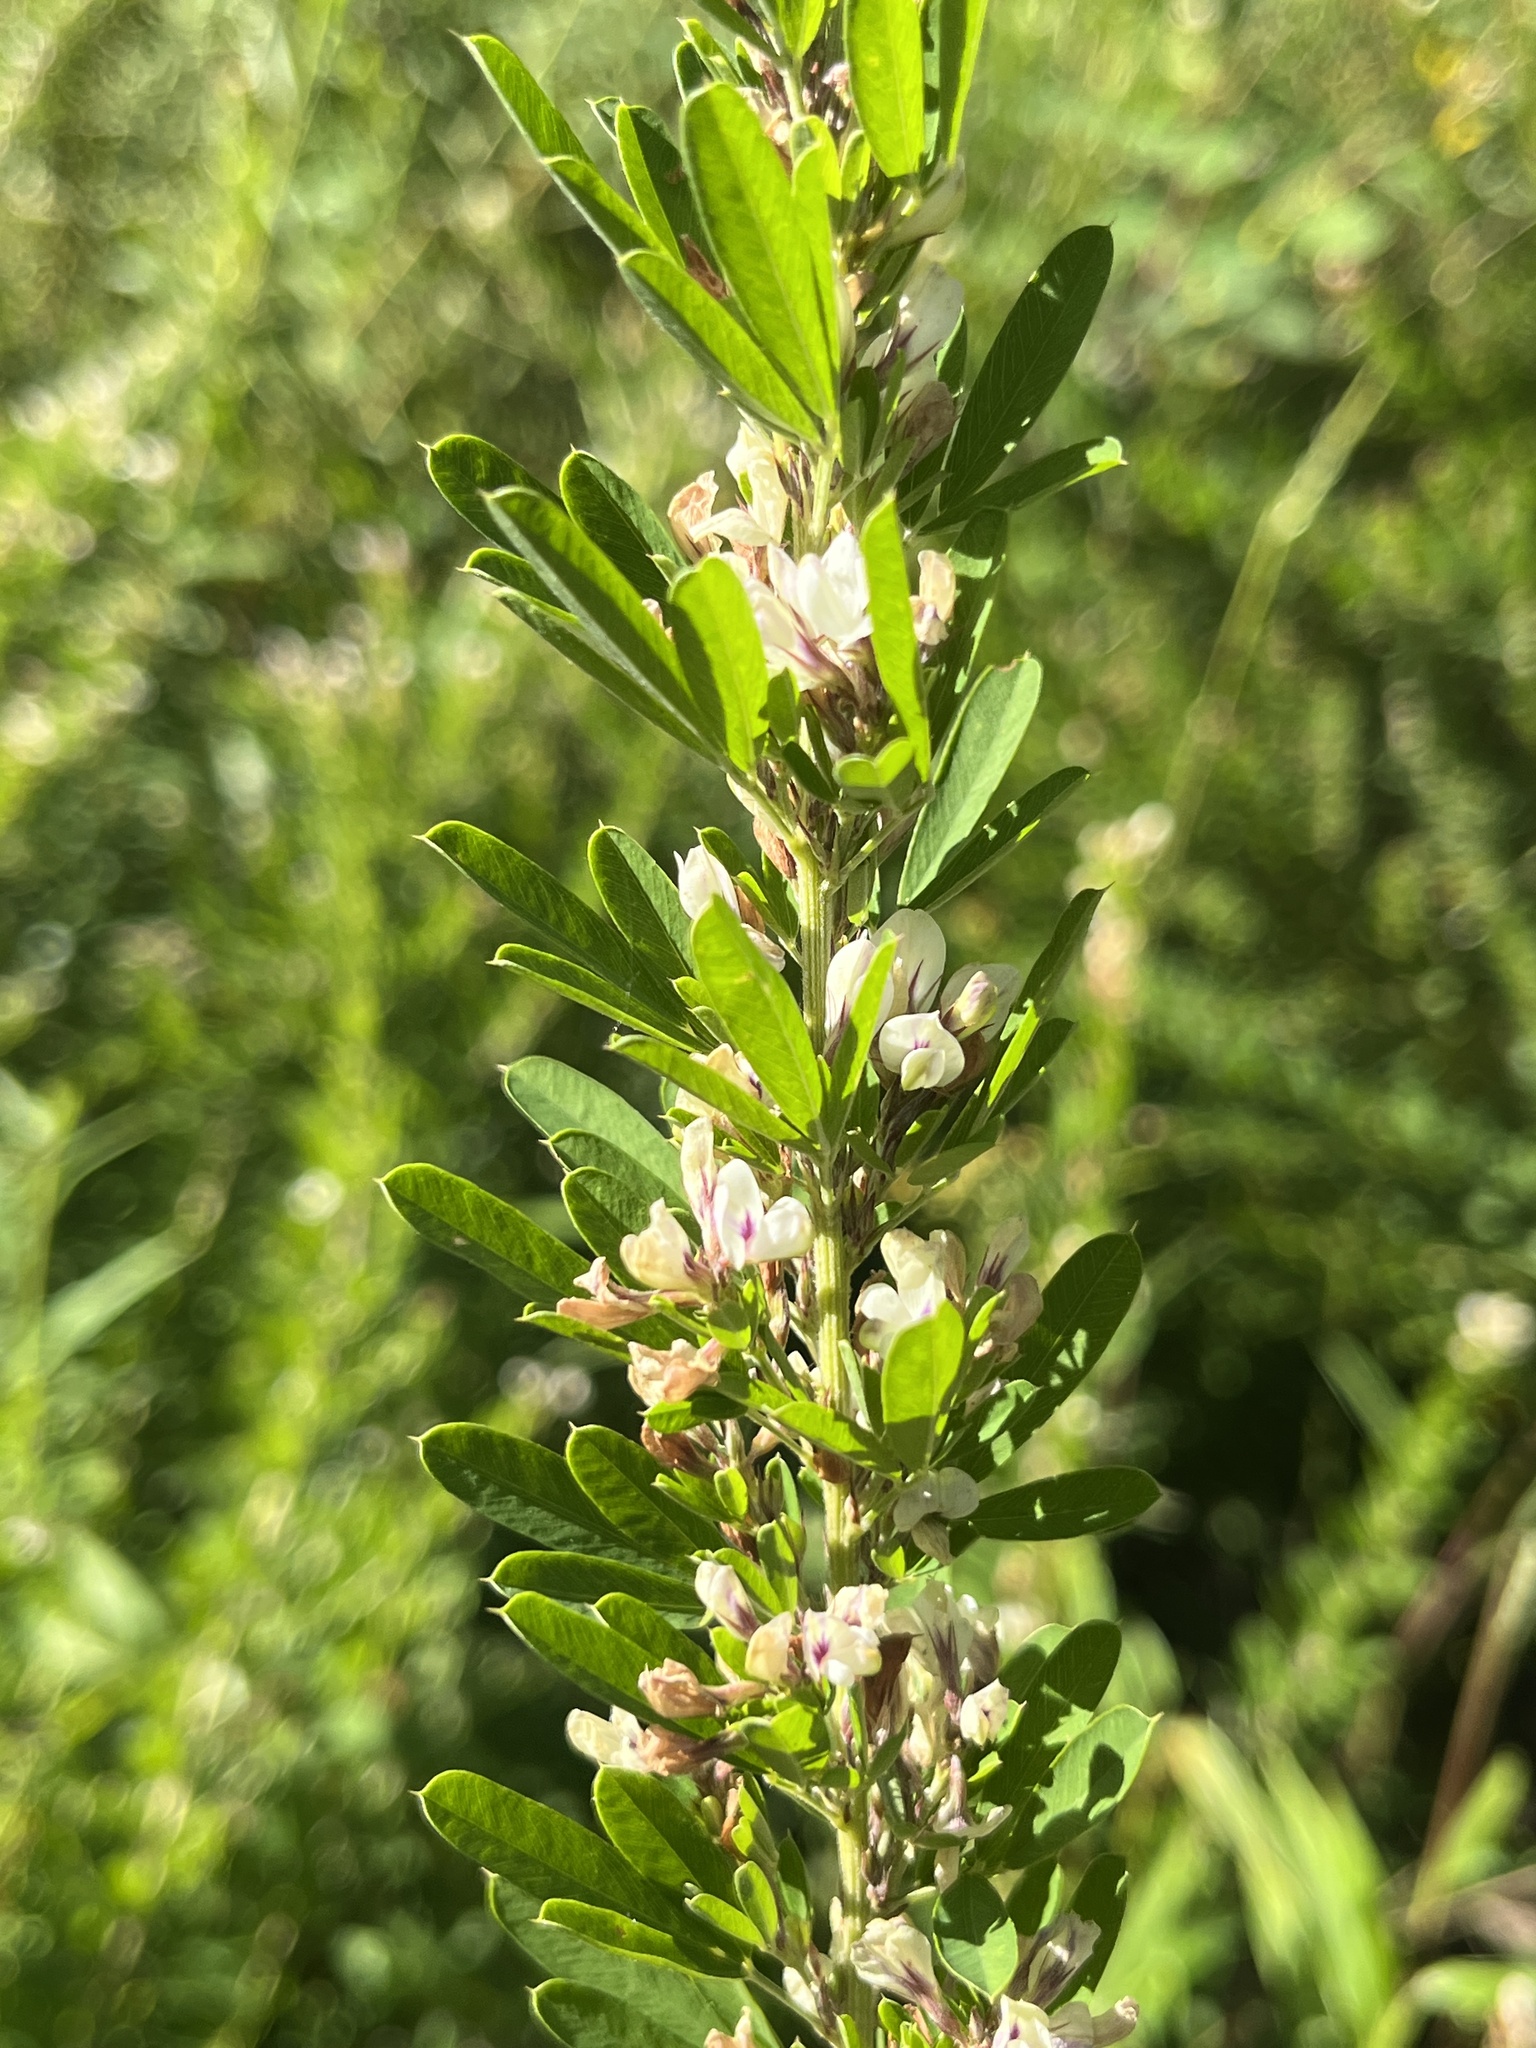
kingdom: Plantae
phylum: Tracheophyta
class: Magnoliopsida
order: Fabales
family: Fabaceae
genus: Lespedeza
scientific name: Lespedeza cuneata
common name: Chinese bush-clover
